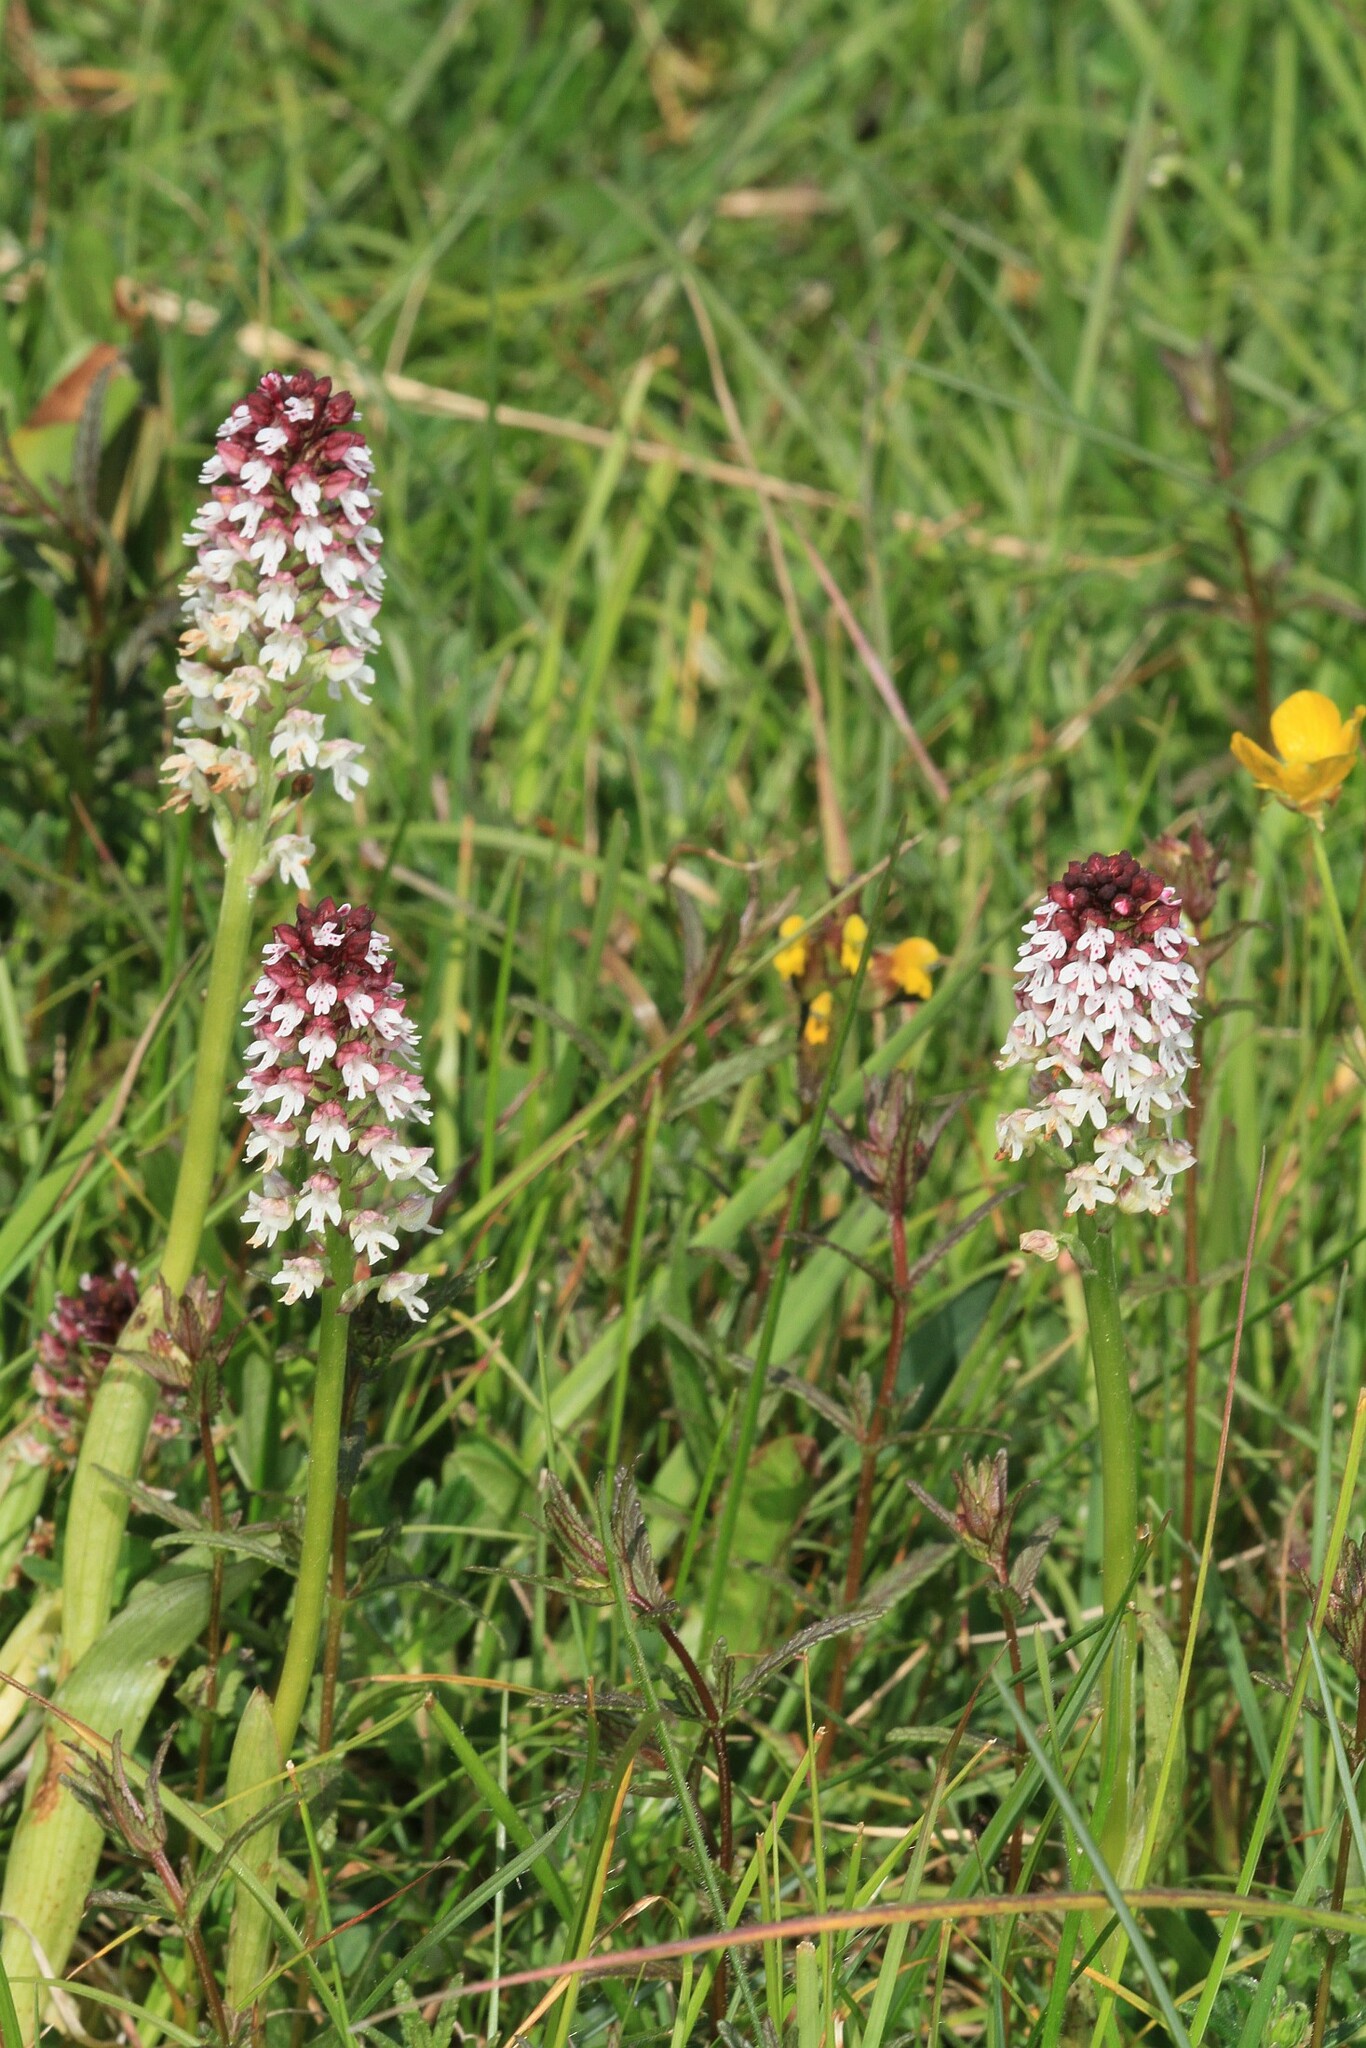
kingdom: Plantae
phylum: Tracheophyta
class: Liliopsida
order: Asparagales
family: Orchidaceae
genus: Neotinea
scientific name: Neotinea ustulata
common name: Burnt orchid
